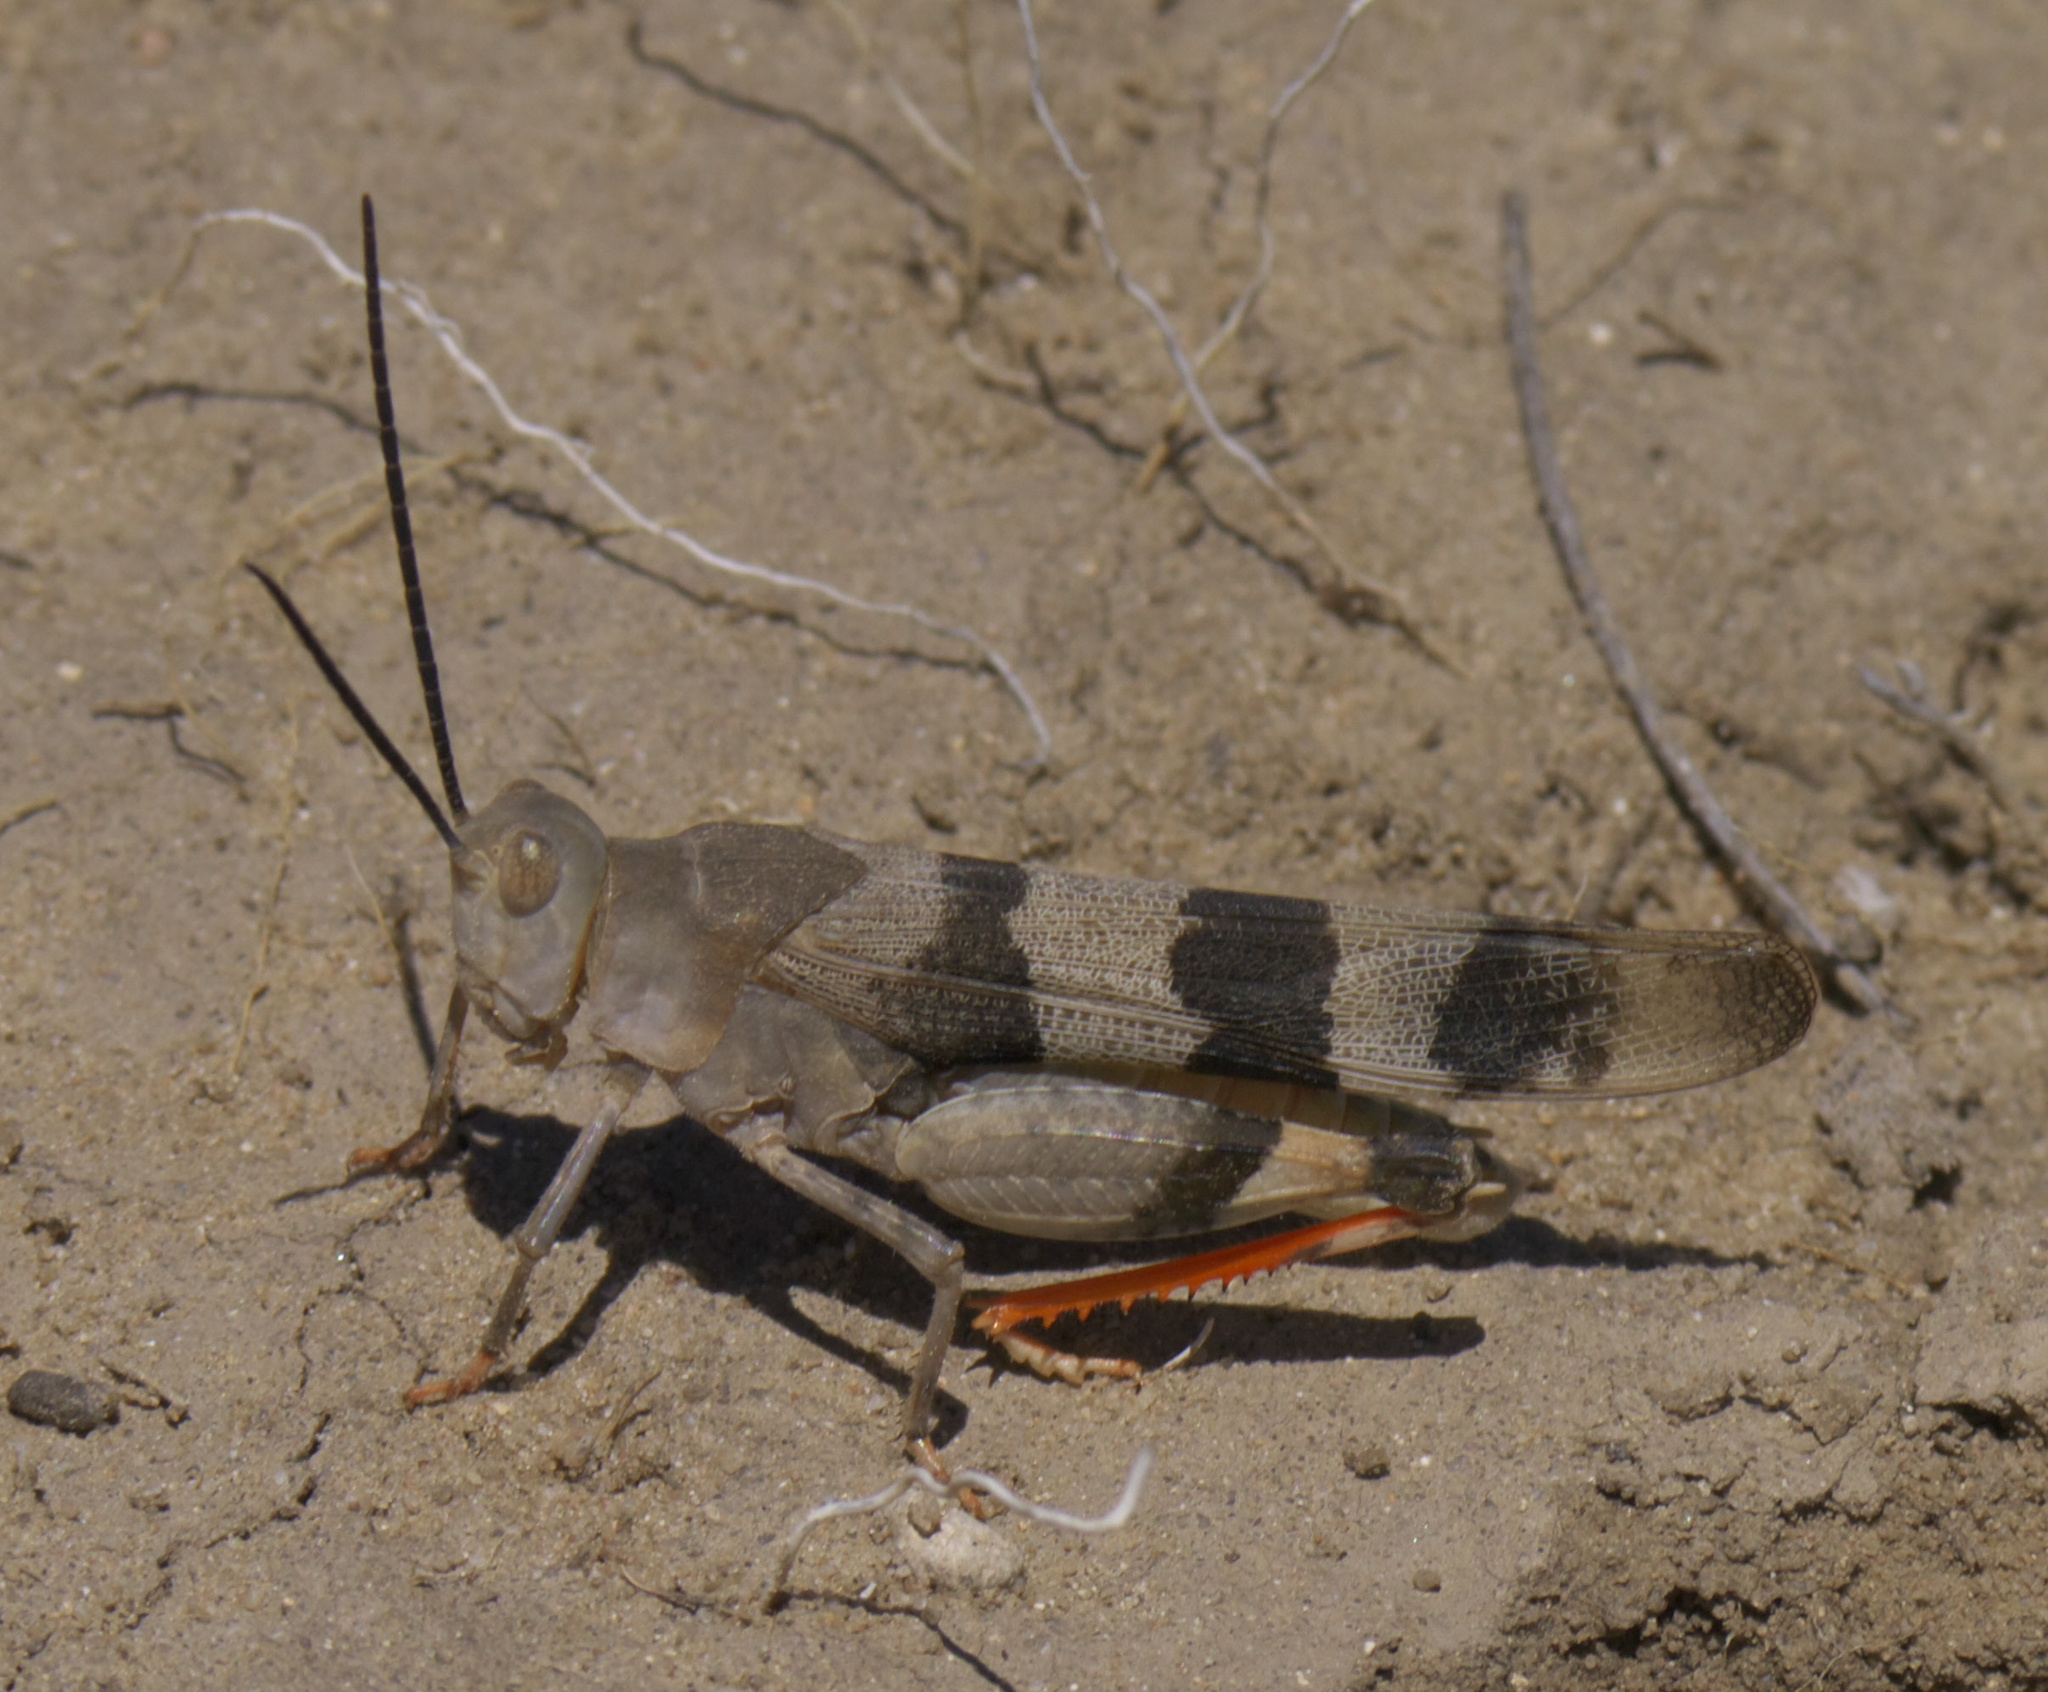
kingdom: Animalia
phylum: Arthropoda
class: Insecta
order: Orthoptera
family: Acrididae
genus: Hadrotettix
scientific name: Hadrotettix trifasciatus
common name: Threebanded grasshopper
